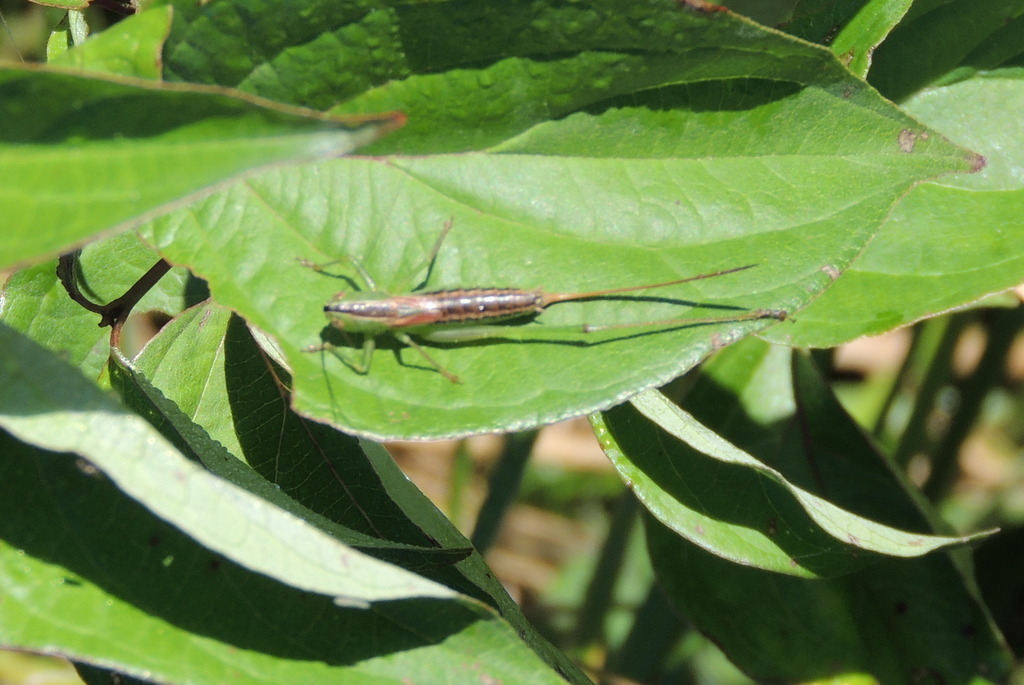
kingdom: Animalia
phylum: Arthropoda
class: Insecta
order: Orthoptera
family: Tettigoniidae
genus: Conocephalus
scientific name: Conocephalus strictus
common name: Straight-lanced katydid
